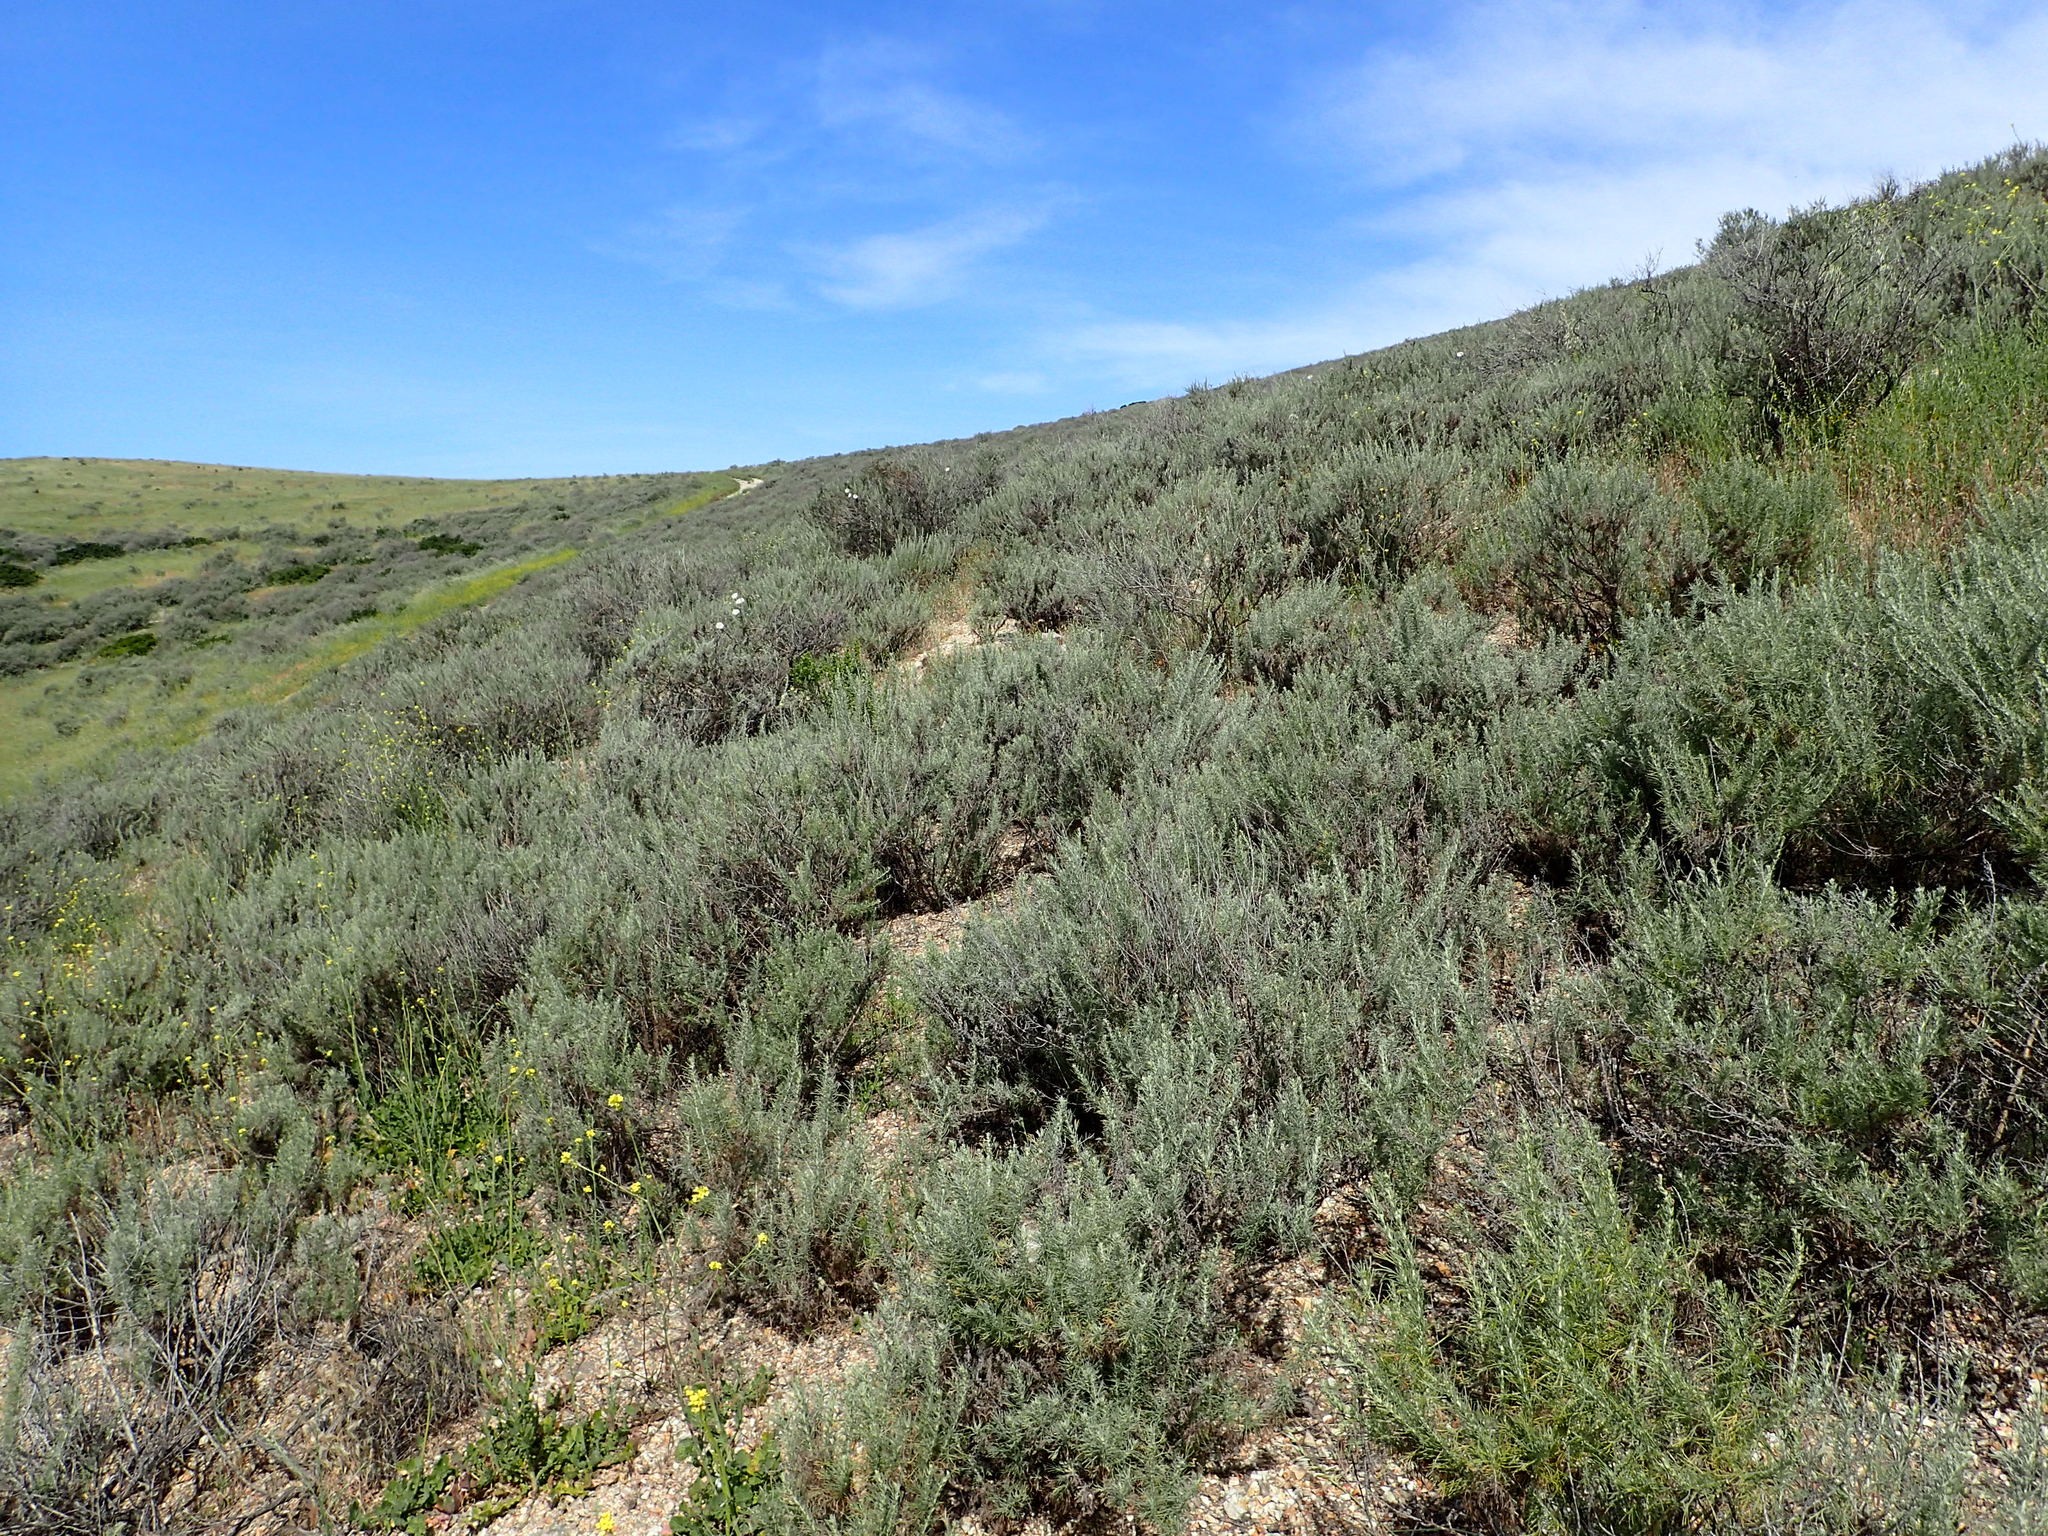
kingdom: Plantae
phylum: Tracheophyta
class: Magnoliopsida
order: Asterales
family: Asteraceae
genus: Artemisia
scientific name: Artemisia californica
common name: California sagebrush
